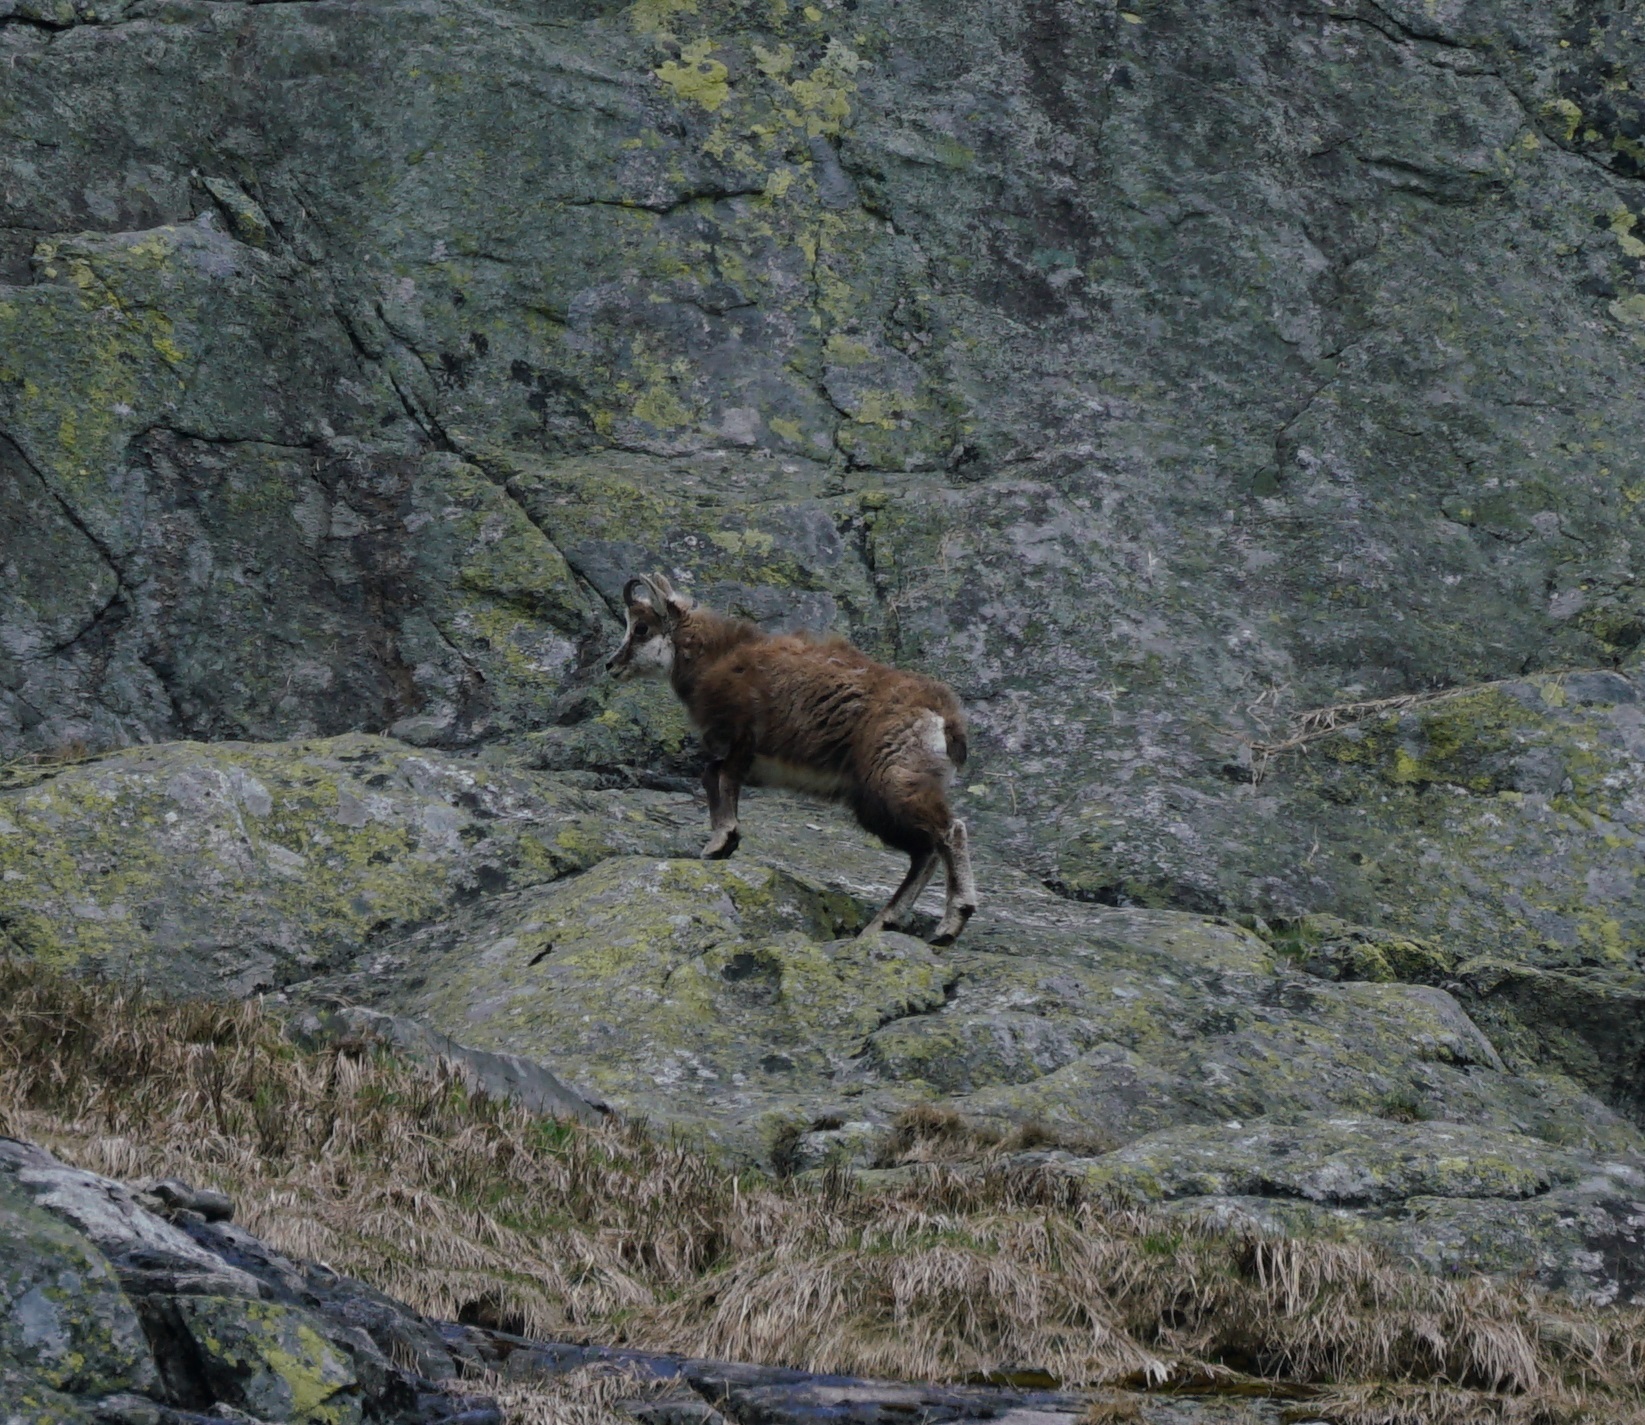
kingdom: Animalia
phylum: Chordata
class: Mammalia
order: Artiodactyla
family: Bovidae
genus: Rupicapra
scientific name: Rupicapra rupicapra
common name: Chamois
